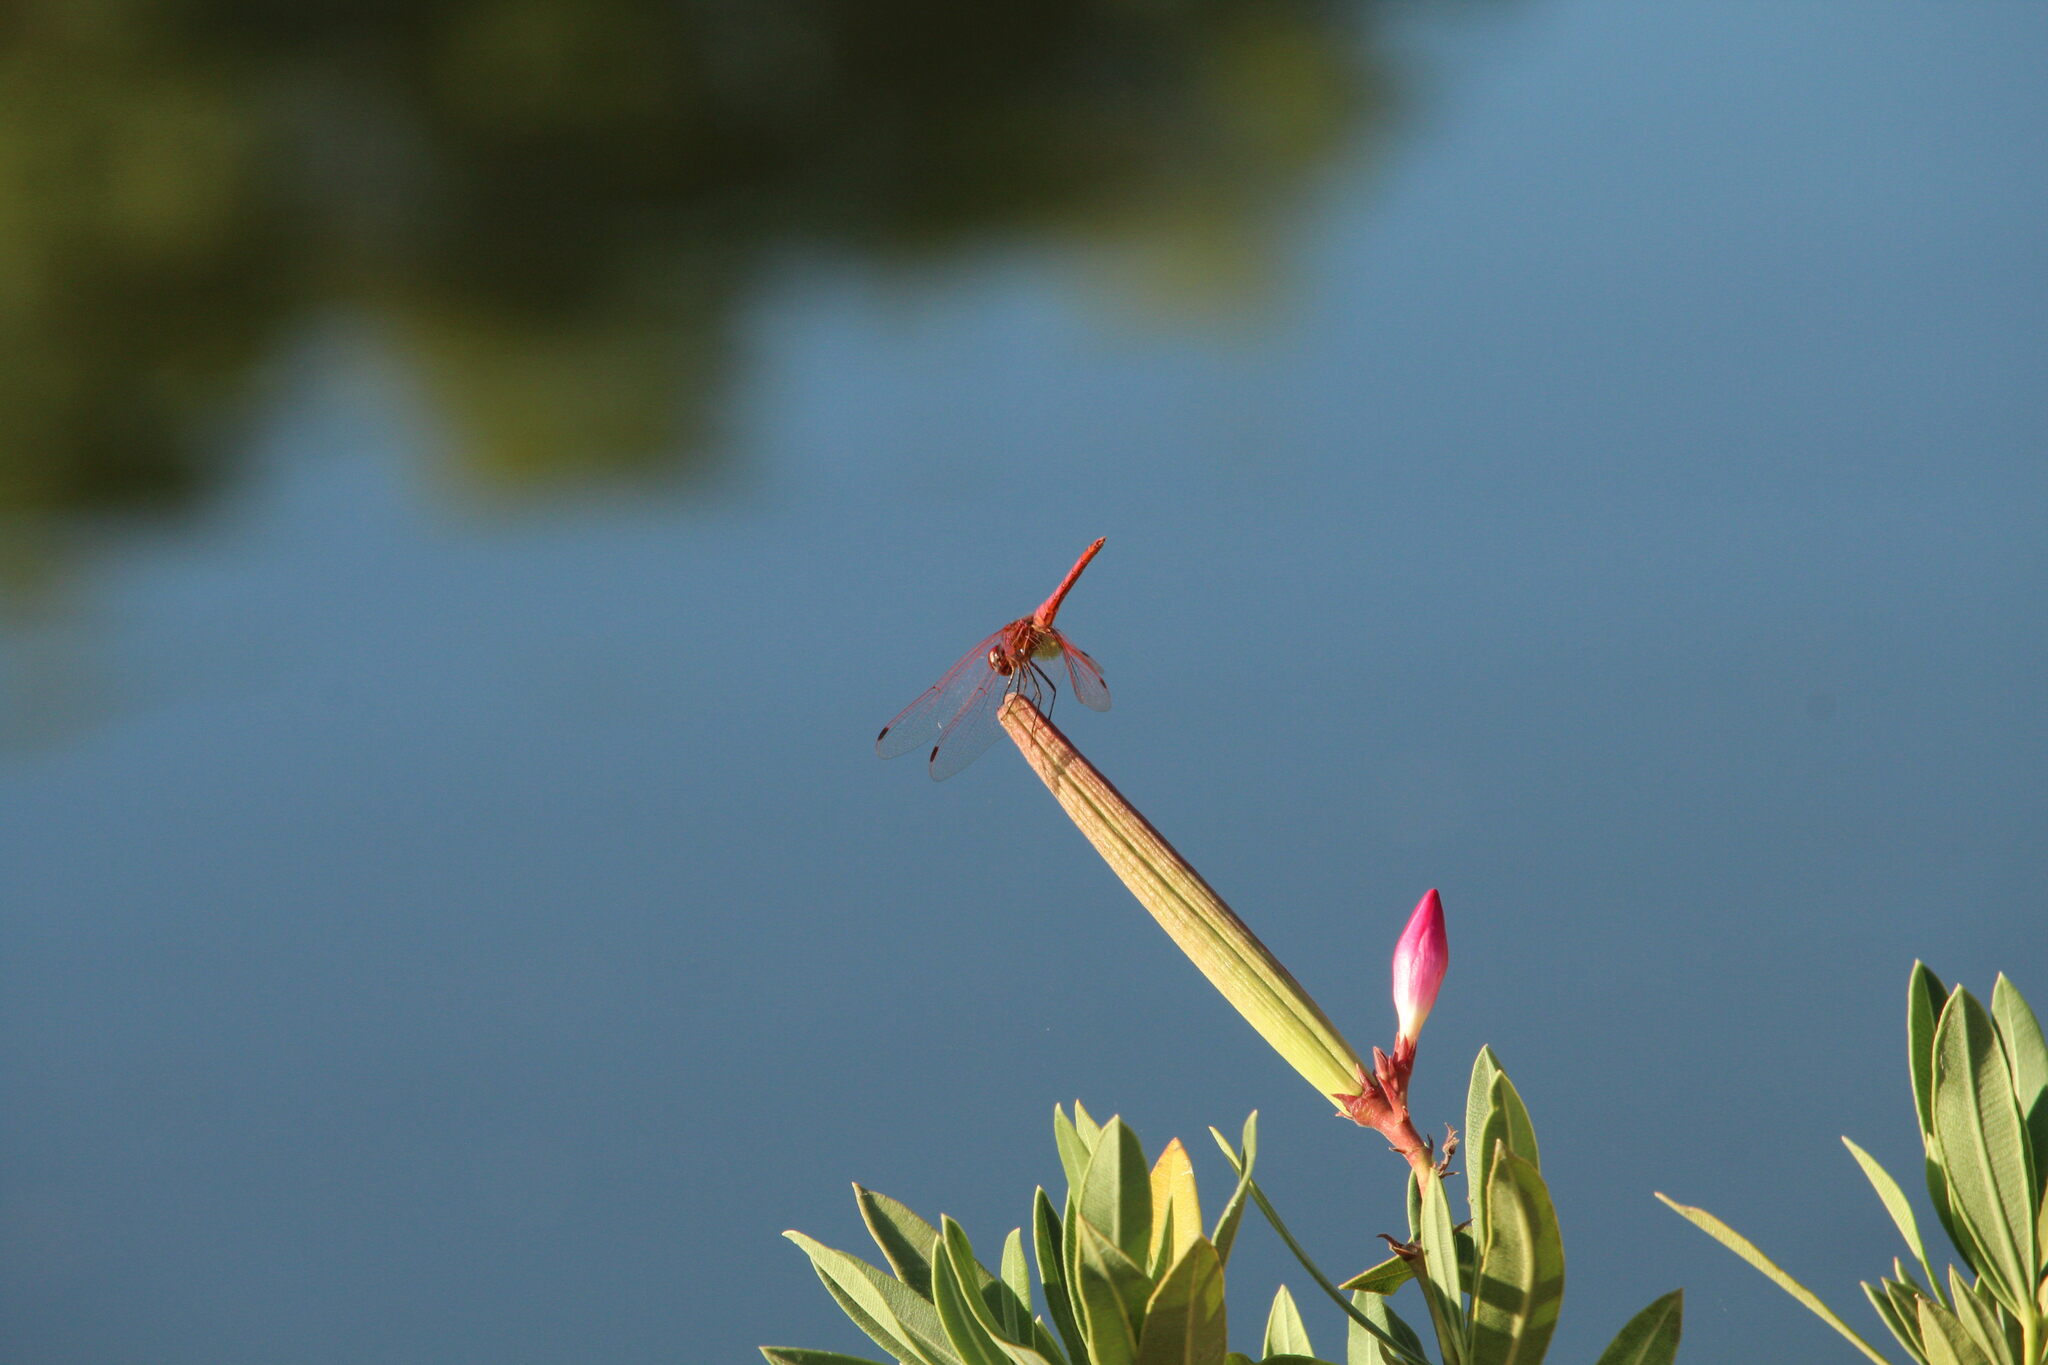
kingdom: Animalia
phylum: Arthropoda
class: Insecta
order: Odonata
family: Libellulidae
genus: Trithemis
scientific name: Trithemis kirbyi
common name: Kirby's dropwing
